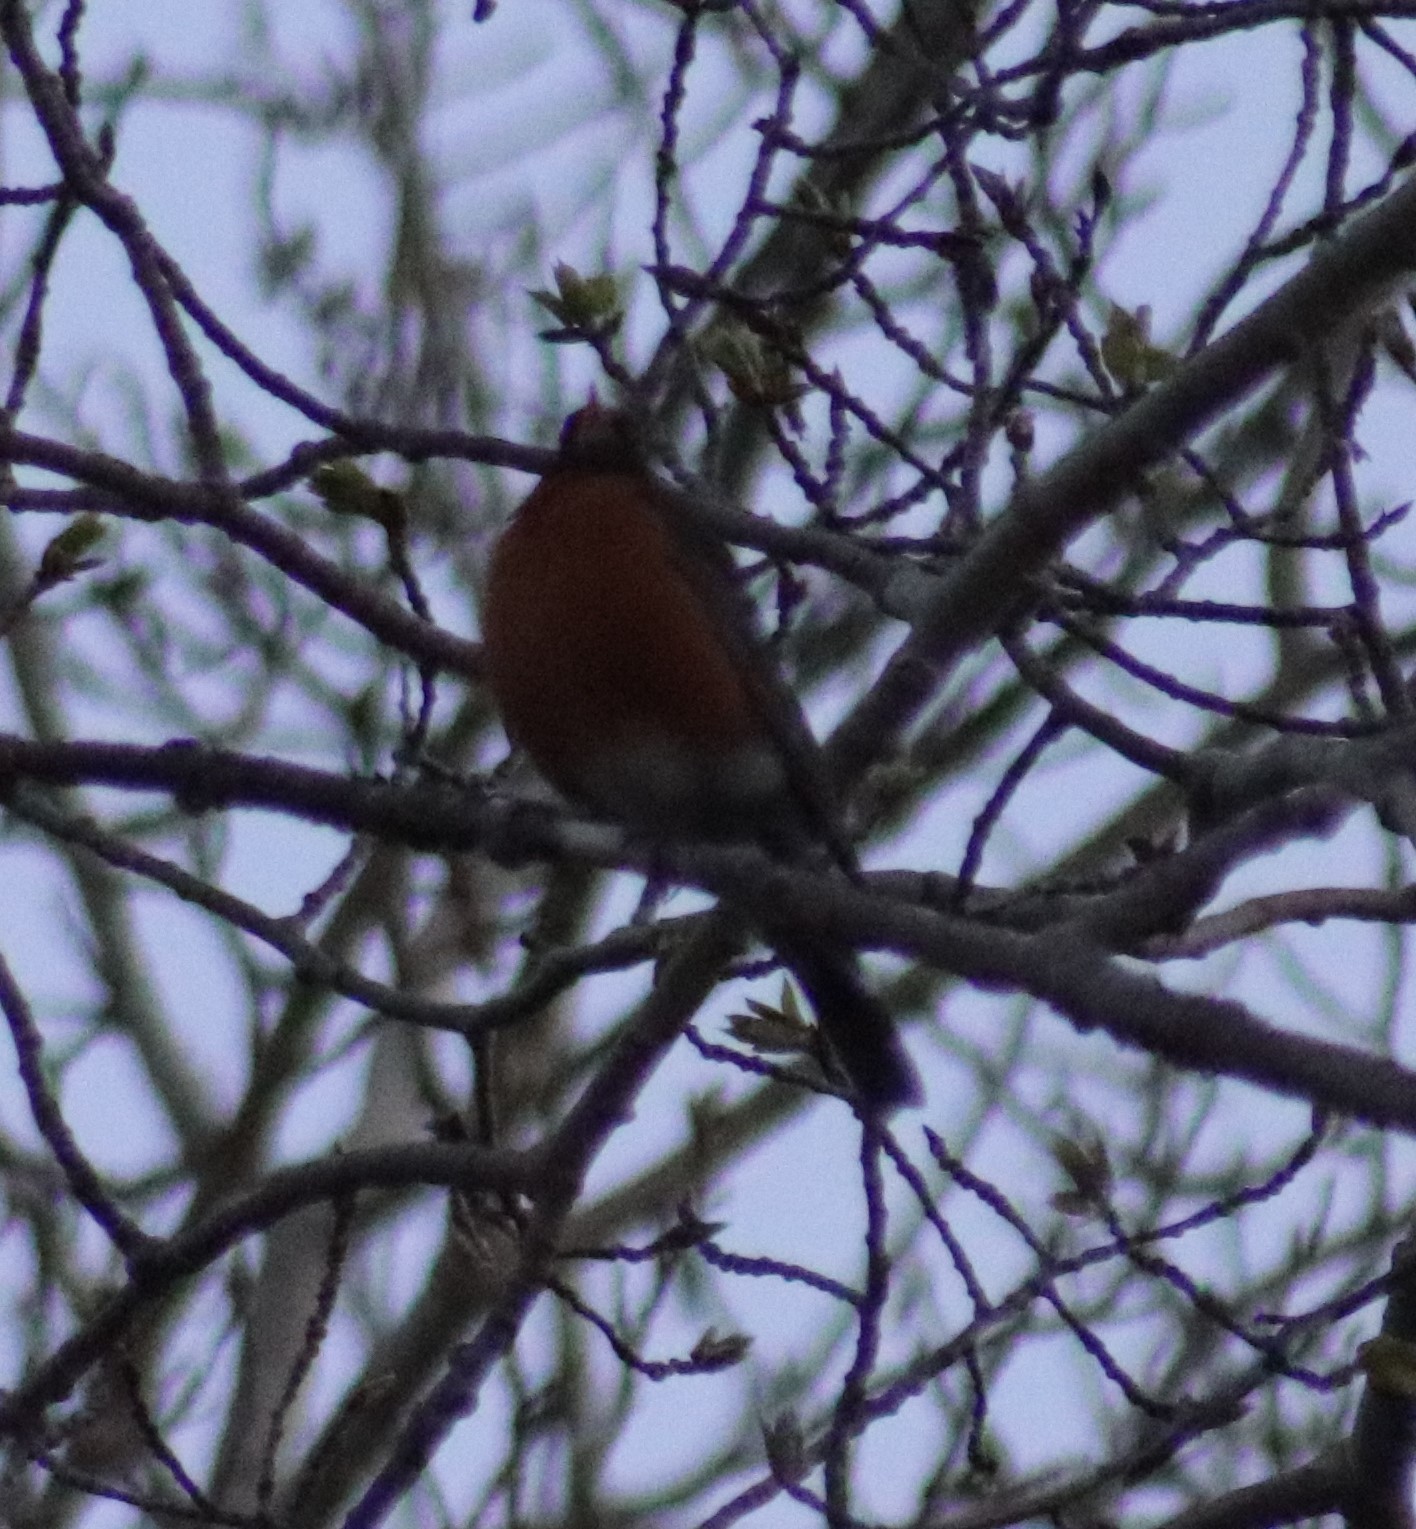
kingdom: Animalia
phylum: Chordata
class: Aves
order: Passeriformes
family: Turdidae
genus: Turdus
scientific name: Turdus migratorius
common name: American robin
